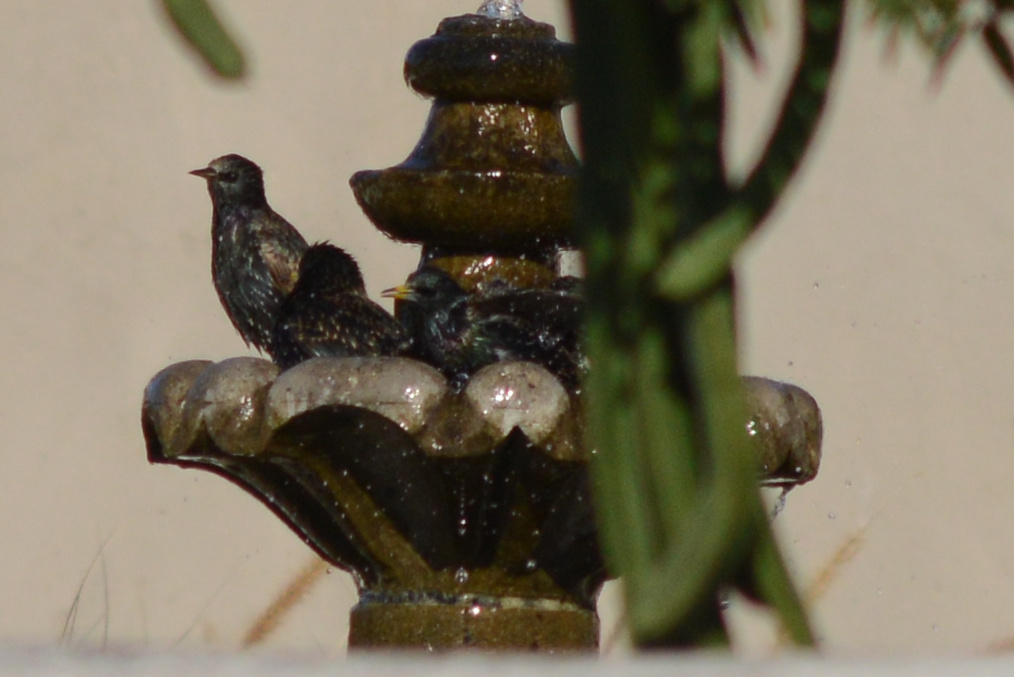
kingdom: Animalia
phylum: Chordata
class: Aves
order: Passeriformes
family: Sturnidae
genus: Sturnus
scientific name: Sturnus vulgaris
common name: Common starling
